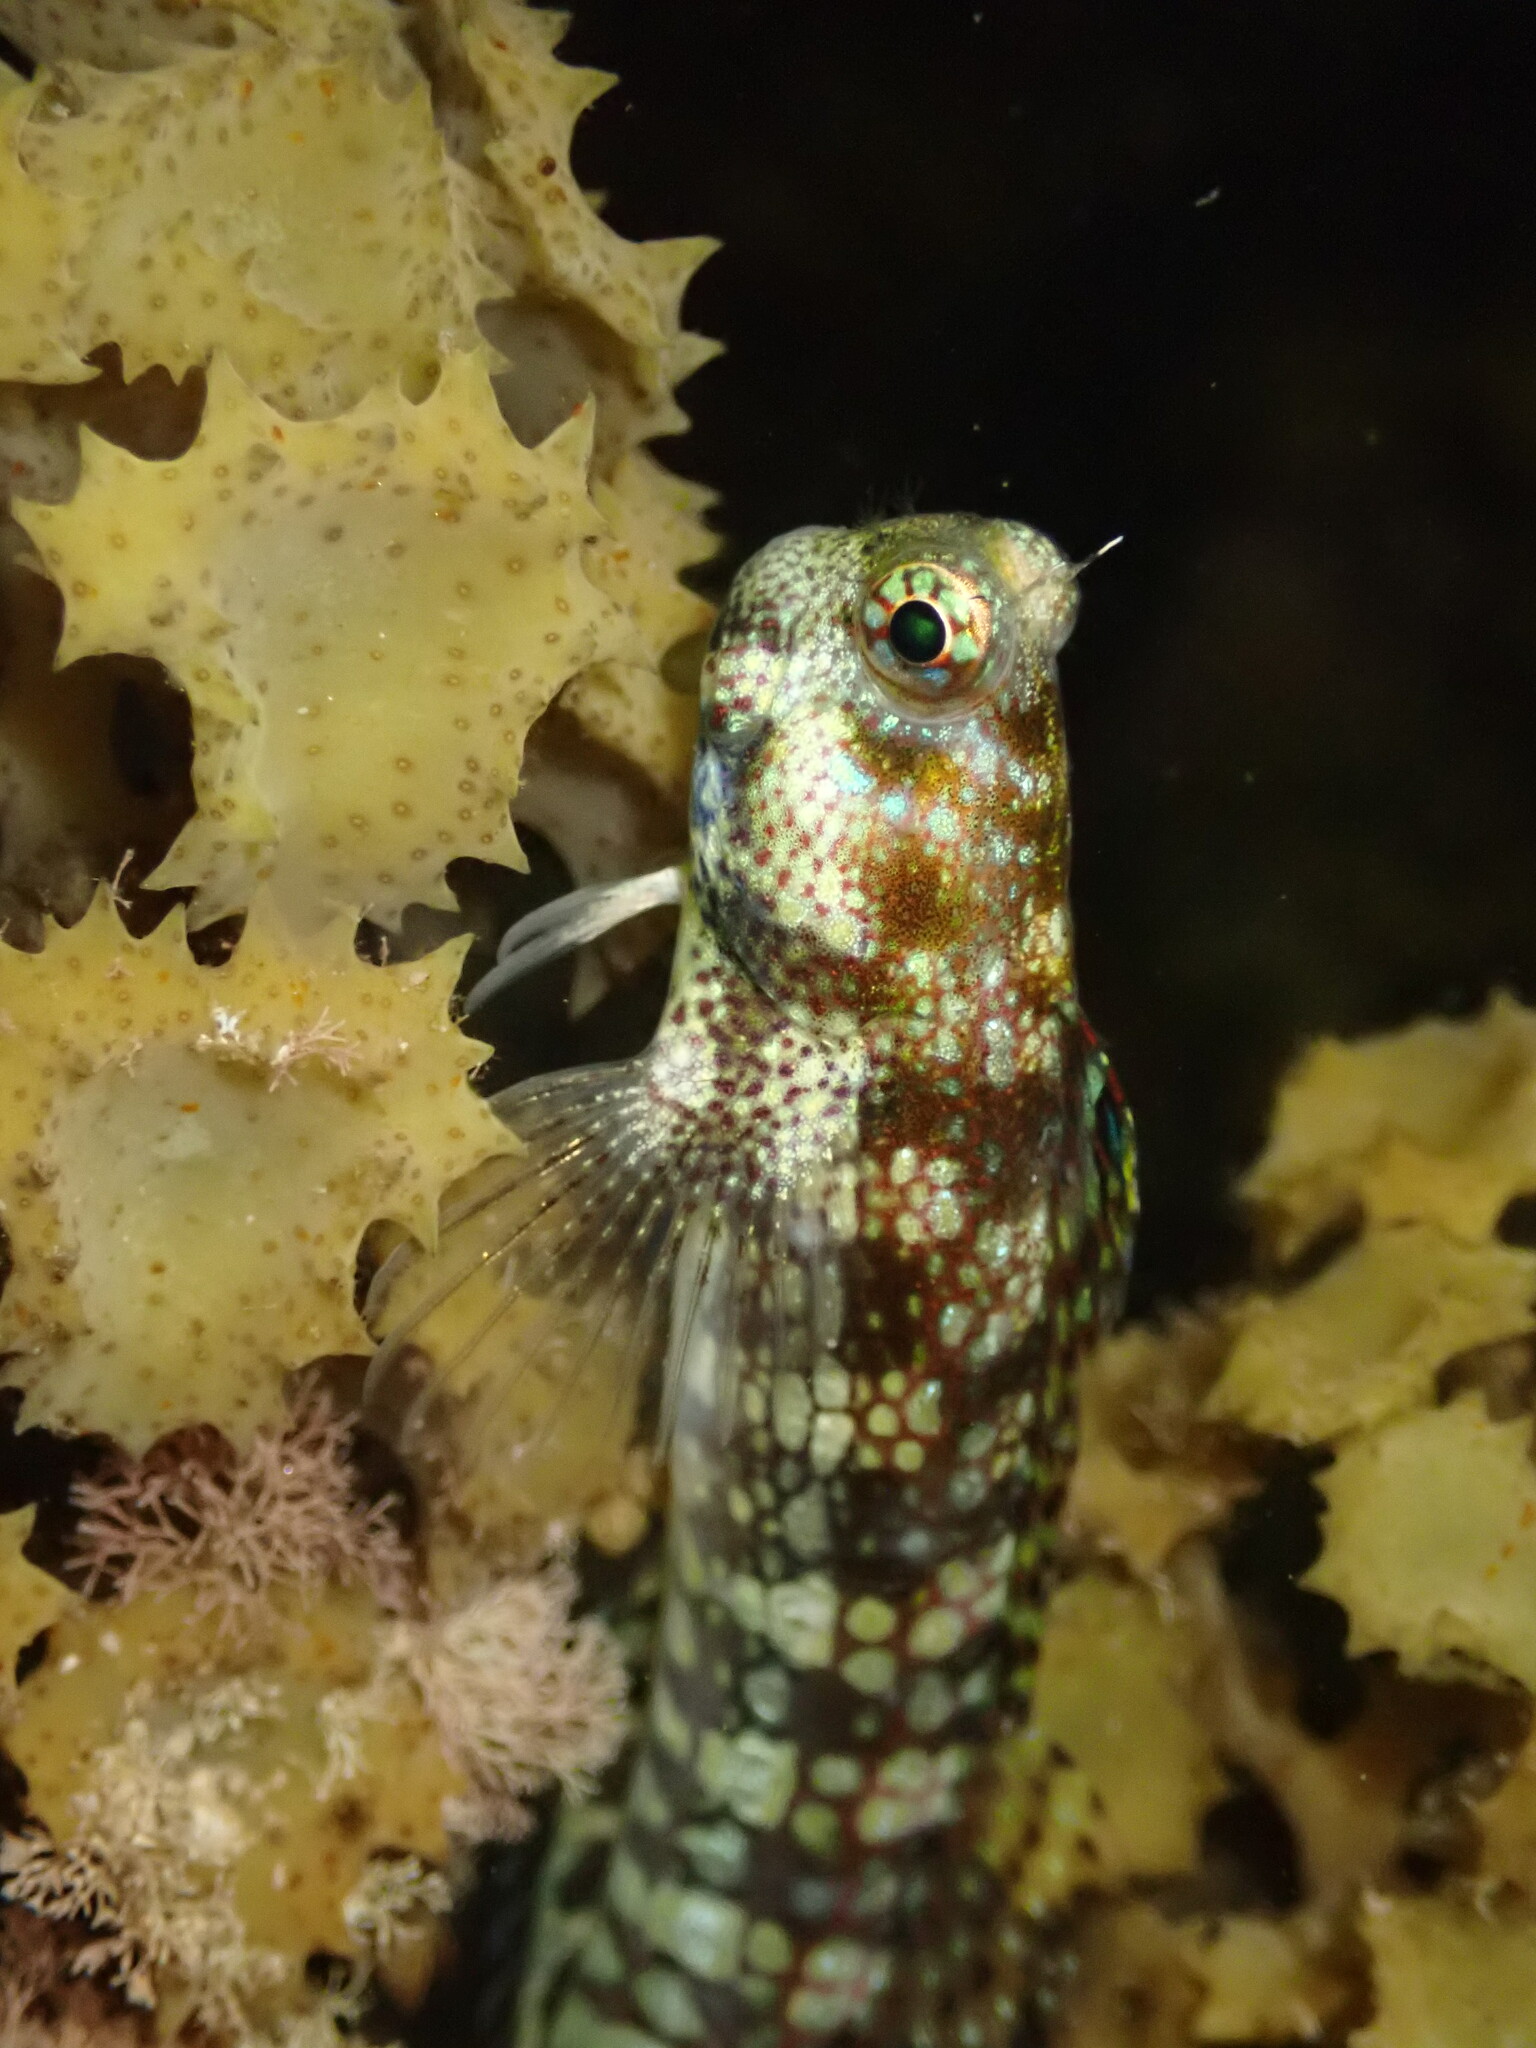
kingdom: Animalia
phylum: Chordata
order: Perciformes
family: Blenniidae
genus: Blenniella
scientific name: Blenniella gibbifrons
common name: Picture rockskipper
